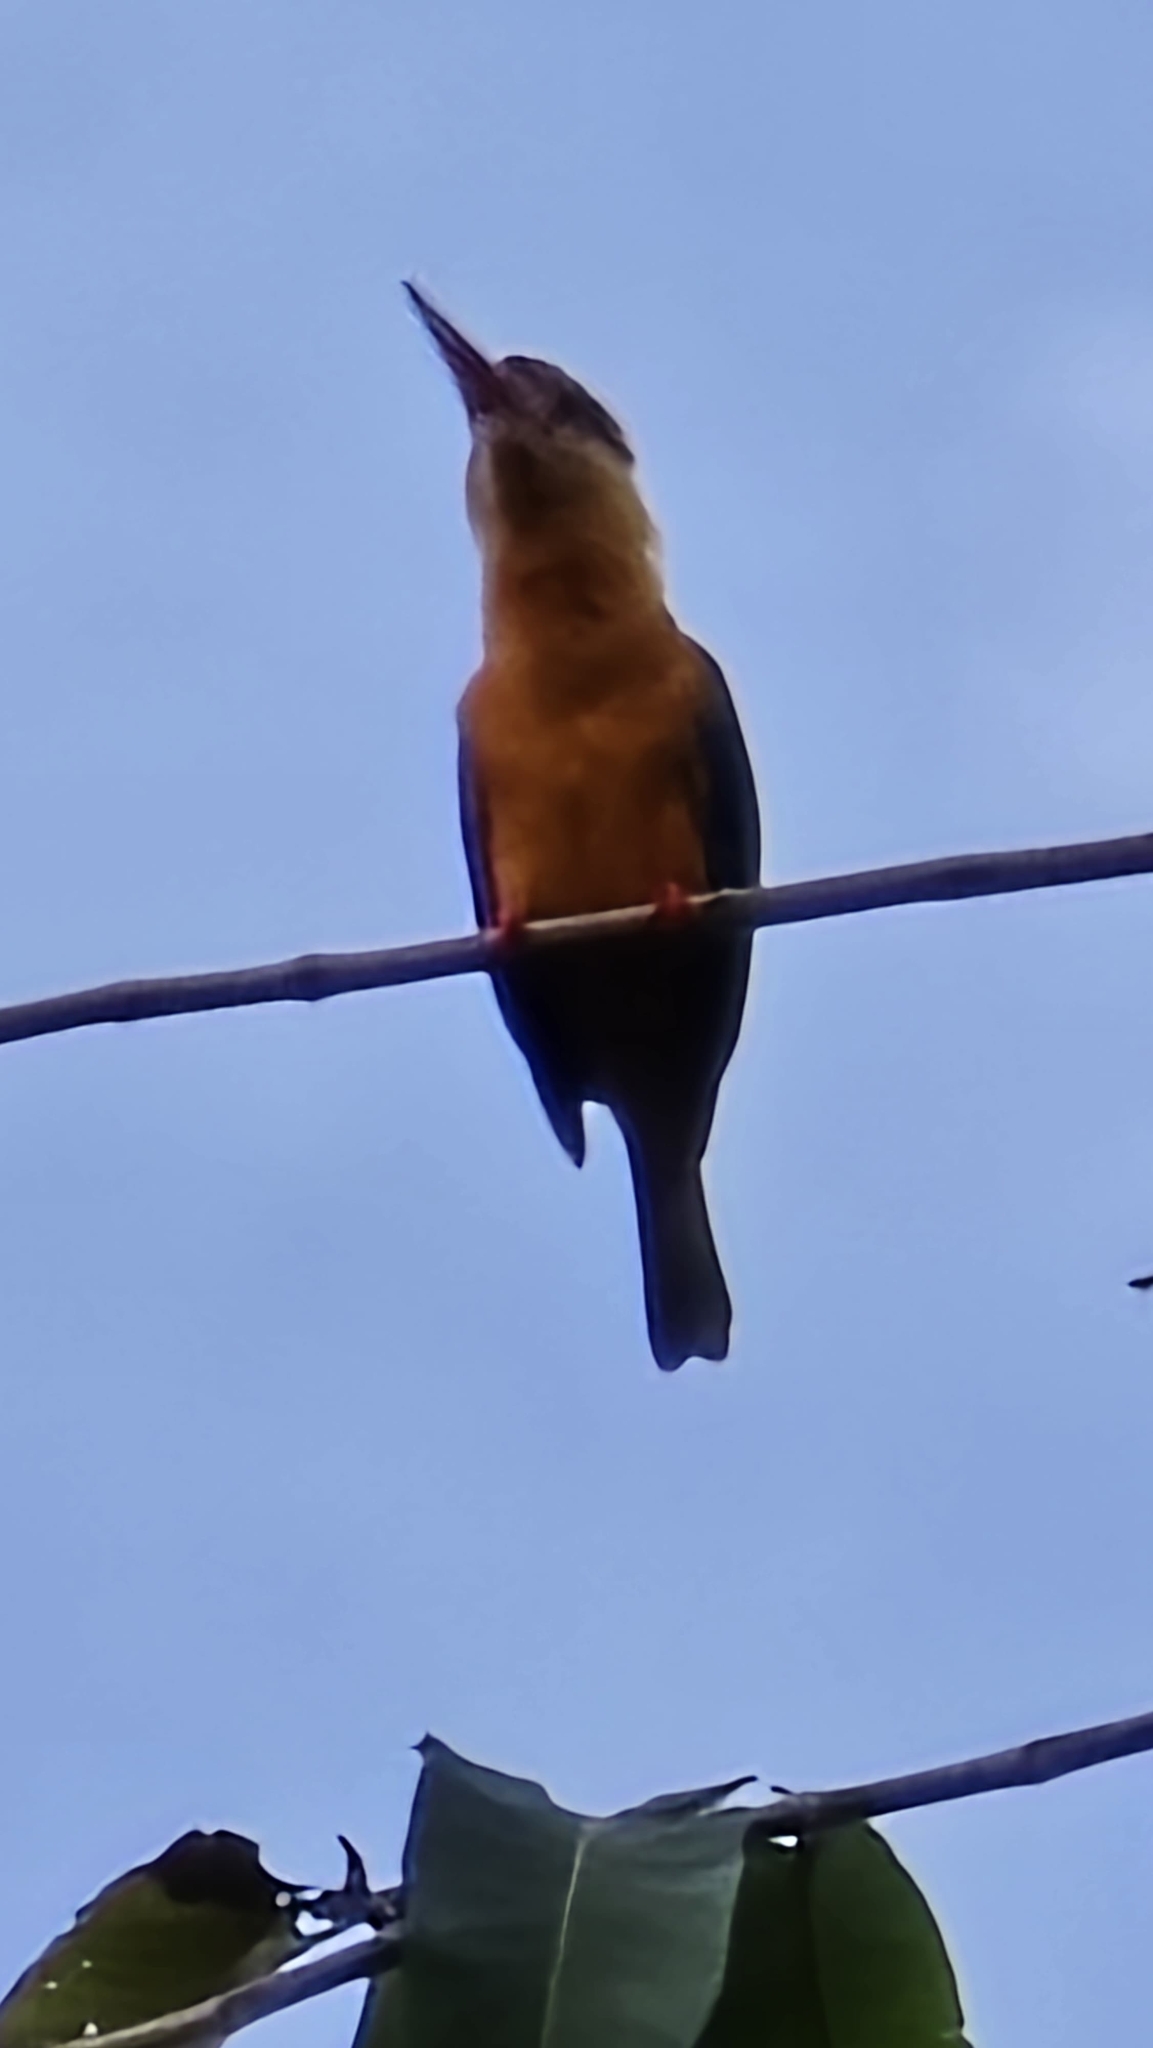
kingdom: Animalia
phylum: Chordata
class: Aves
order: Coraciiformes
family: Alcedinidae
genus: Pelargopsis
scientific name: Pelargopsis capensis
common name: Stork-billed kingfisher
